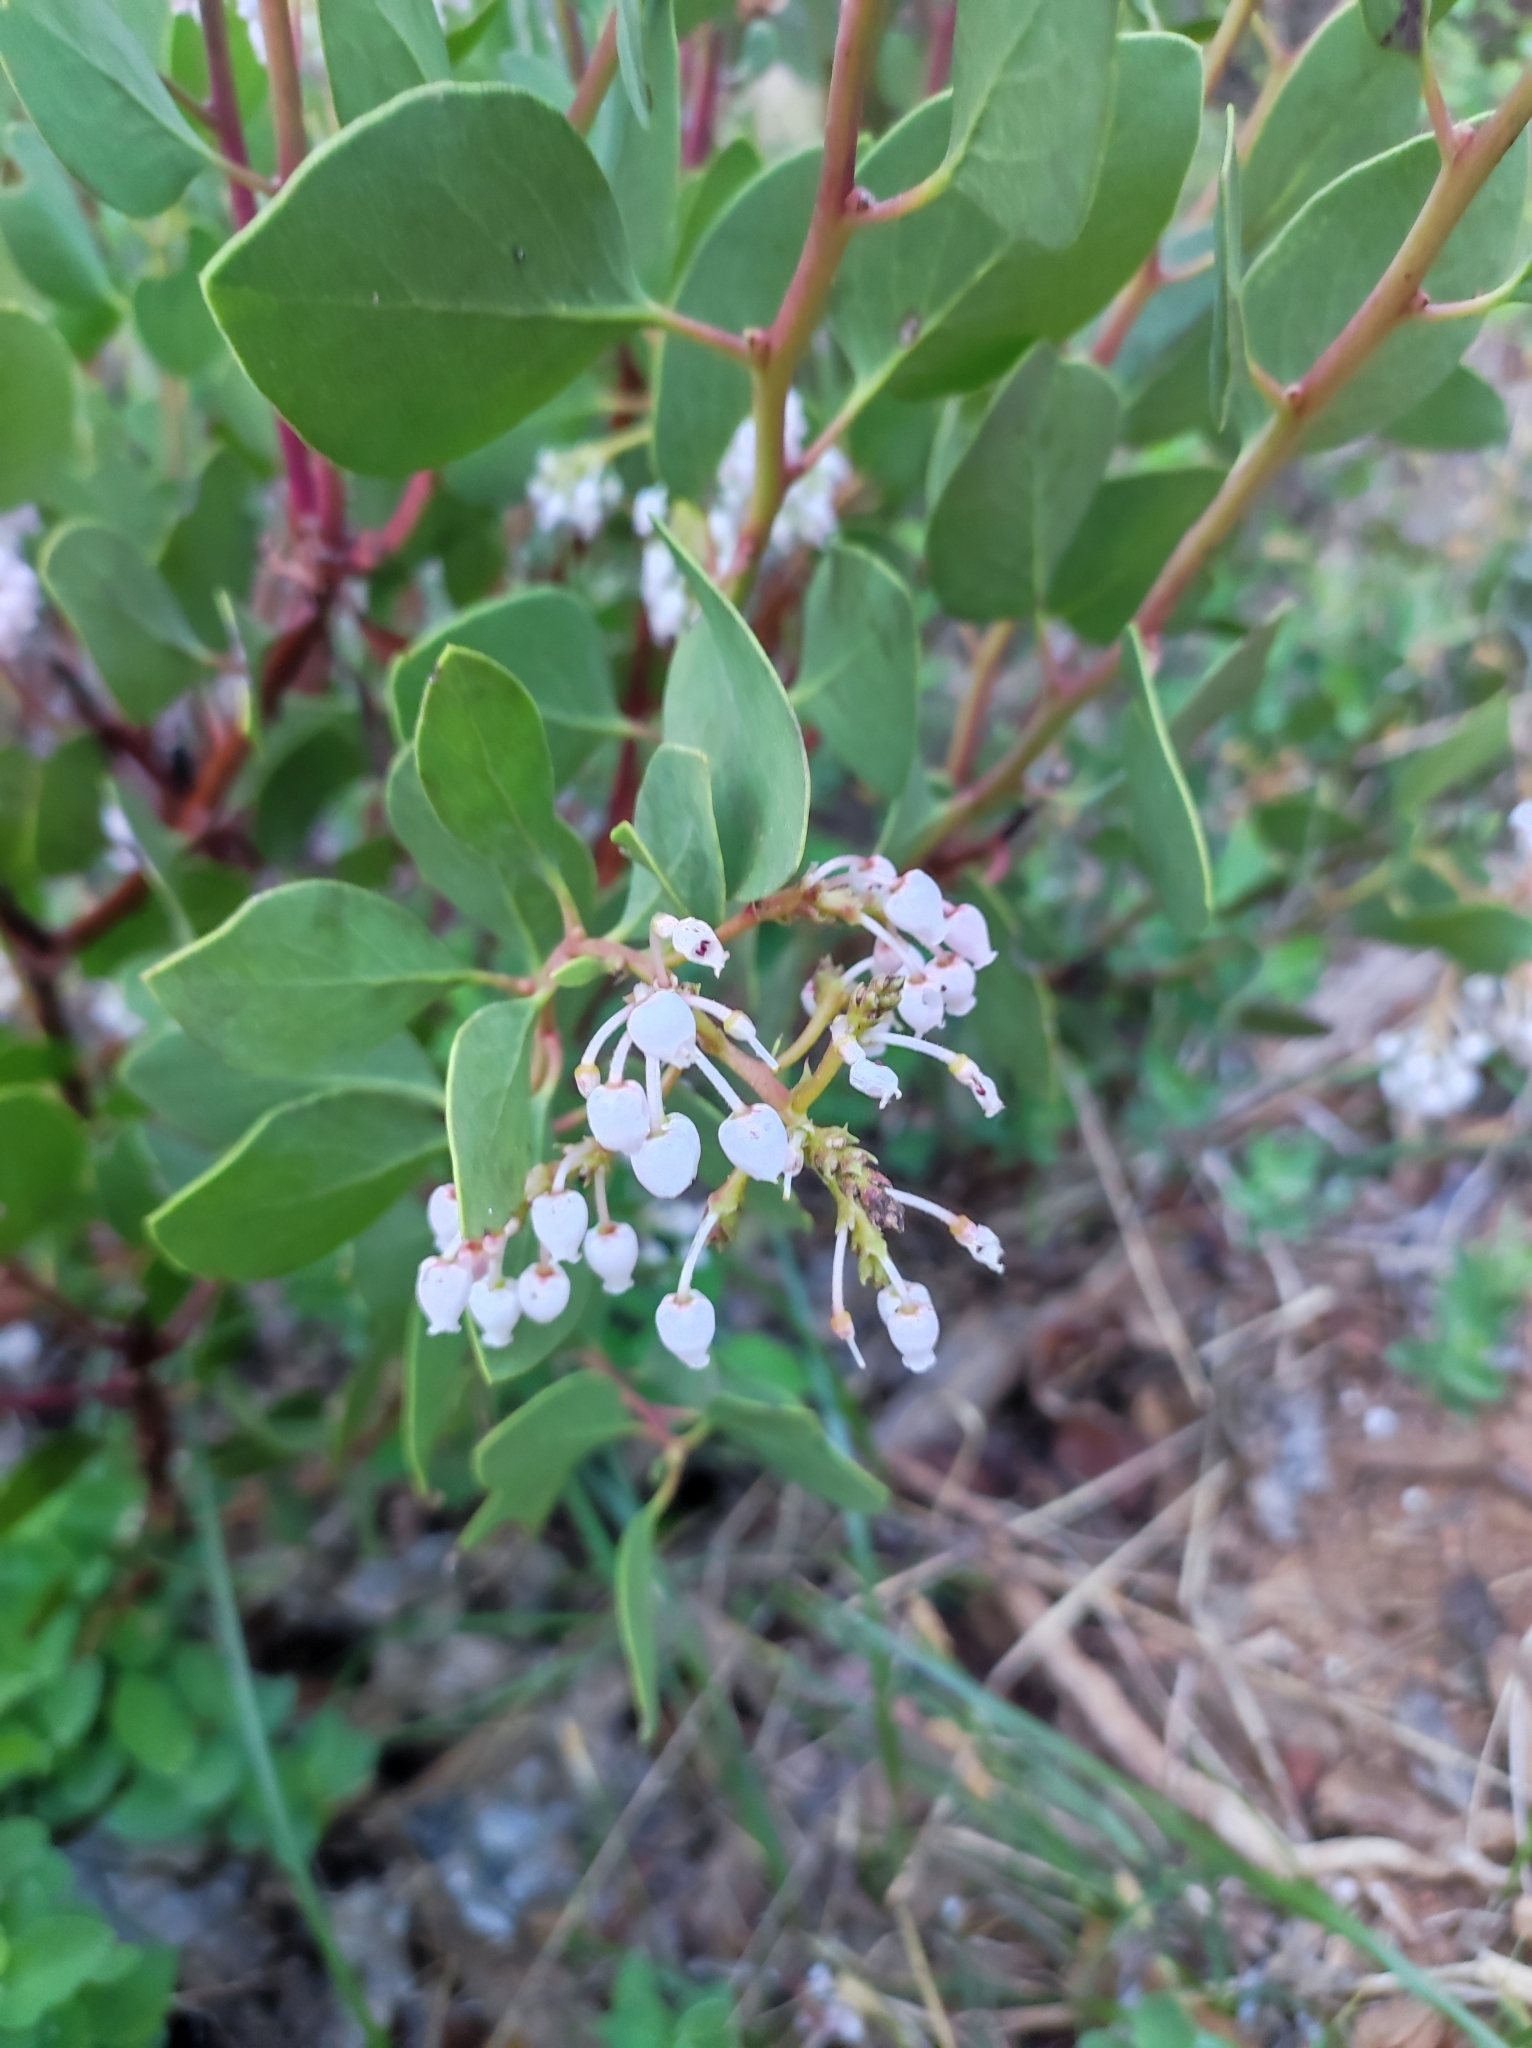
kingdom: Plantae
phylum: Tracheophyta
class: Magnoliopsida
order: Ericales
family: Ericaceae
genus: Arctostaphylos
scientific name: Arctostaphylos patula
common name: Green-leaf manzanita
